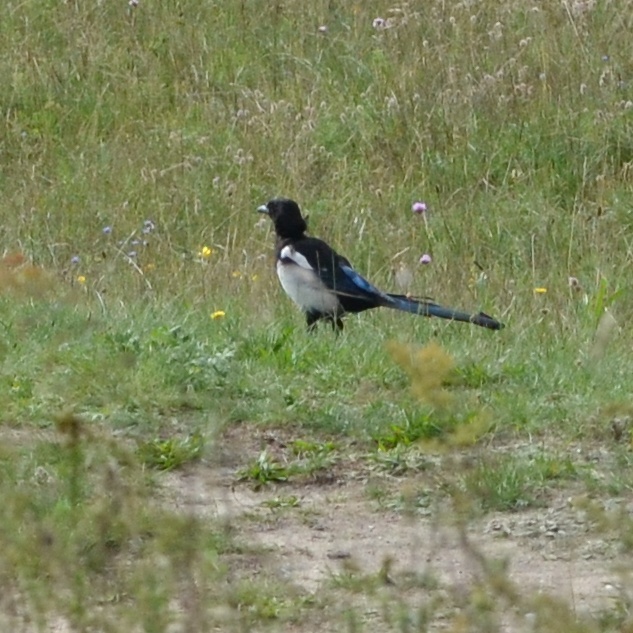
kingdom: Animalia
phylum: Chordata
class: Aves
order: Passeriformes
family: Corvidae
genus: Pica
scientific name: Pica pica
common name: Eurasian magpie
